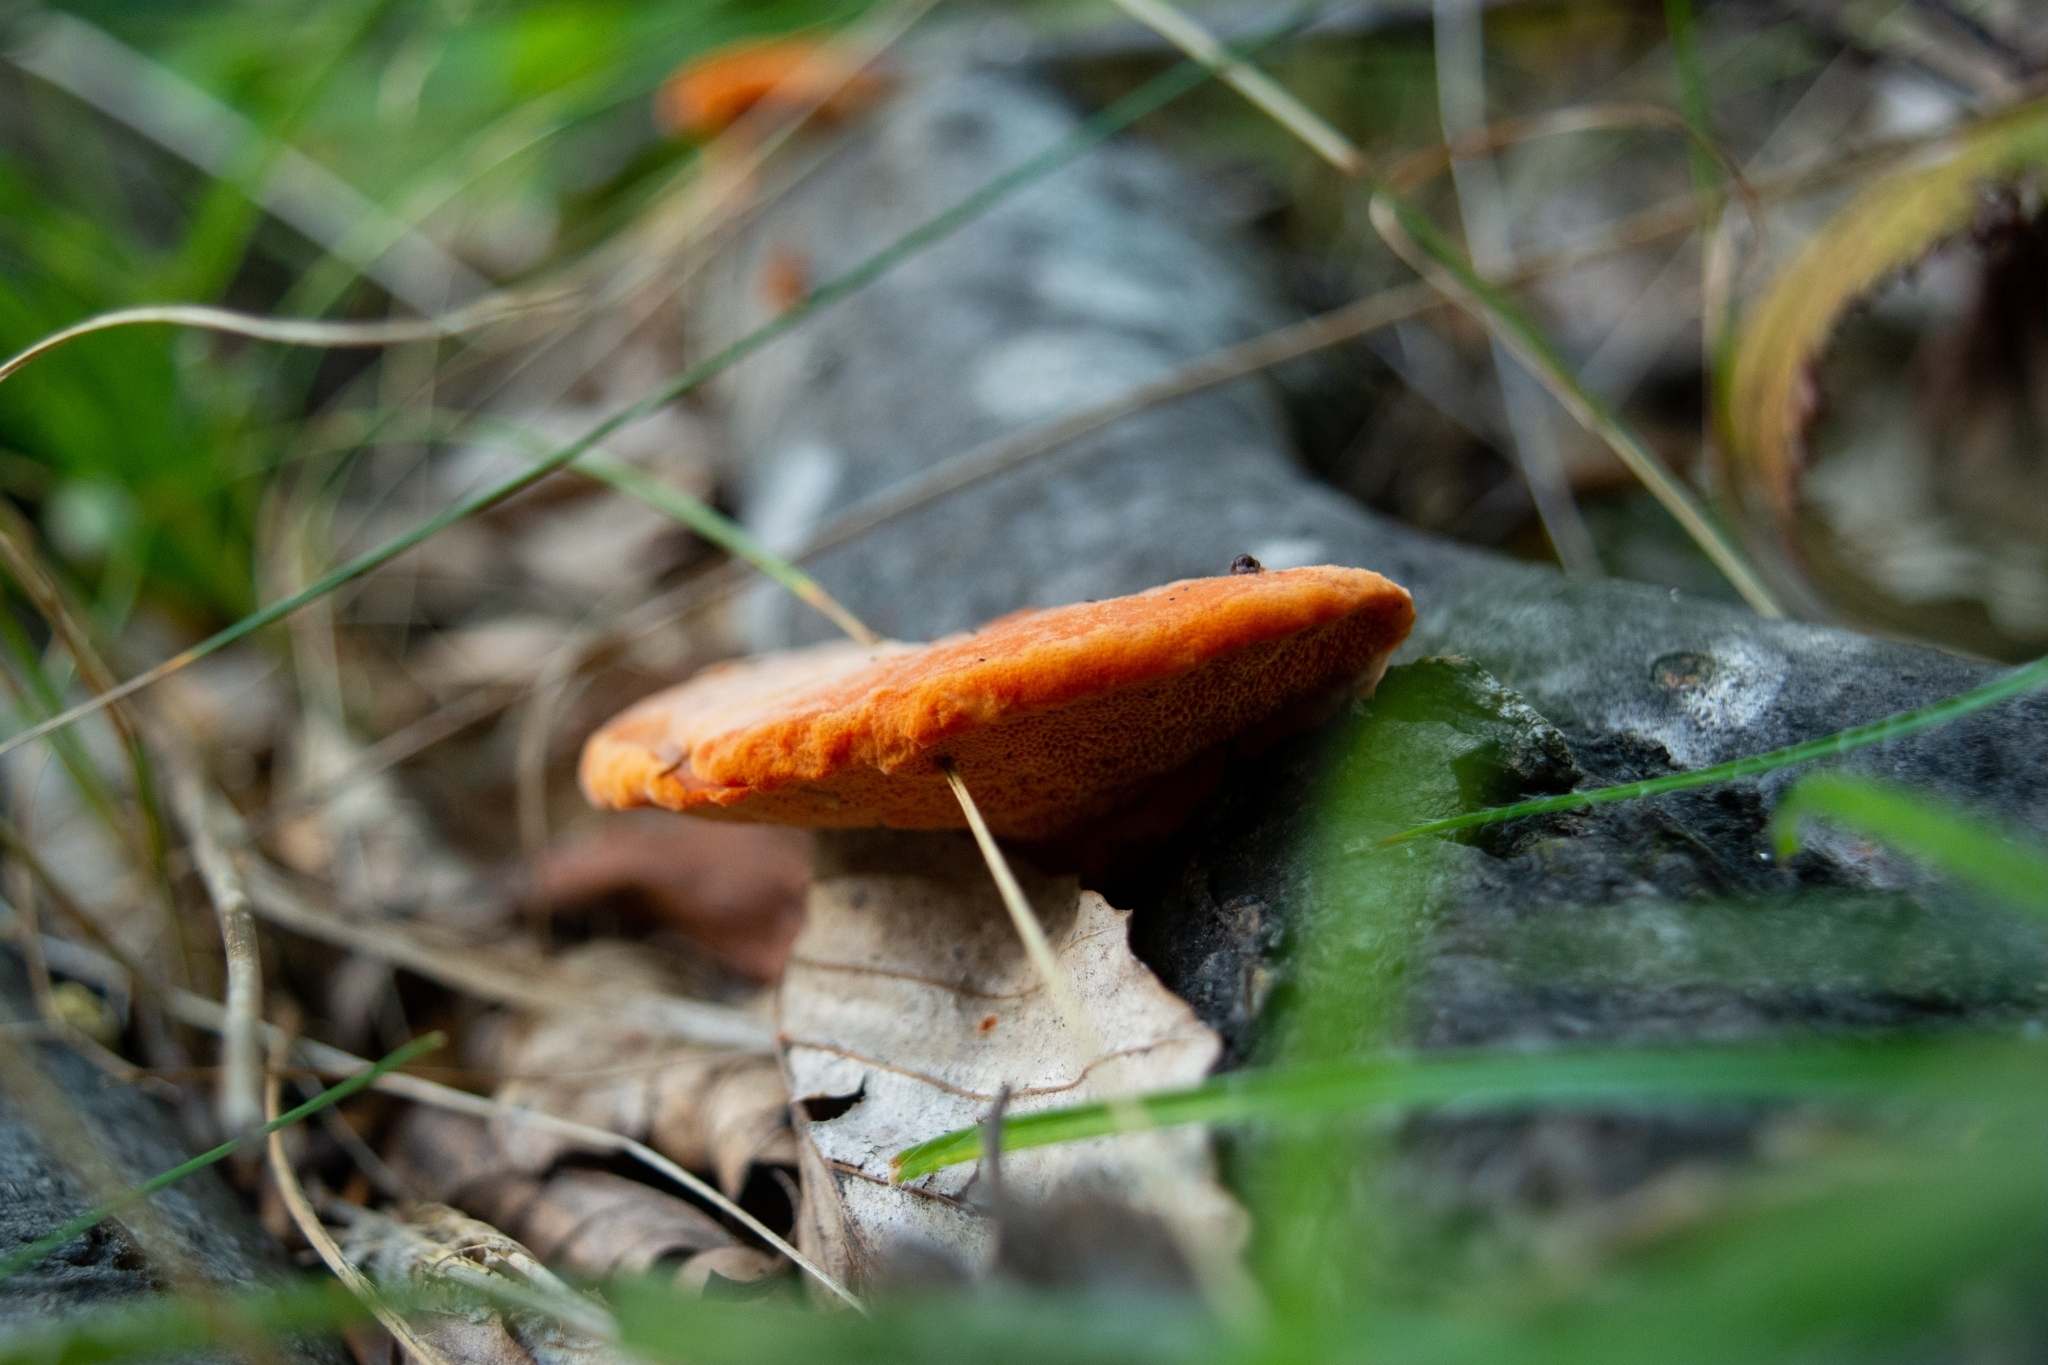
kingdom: Fungi
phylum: Basidiomycota
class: Agaricomycetes
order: Polyporales
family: Polyporaceae
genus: Trametes
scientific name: Trametes cinnabarina
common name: Northern cinnabar polypore
